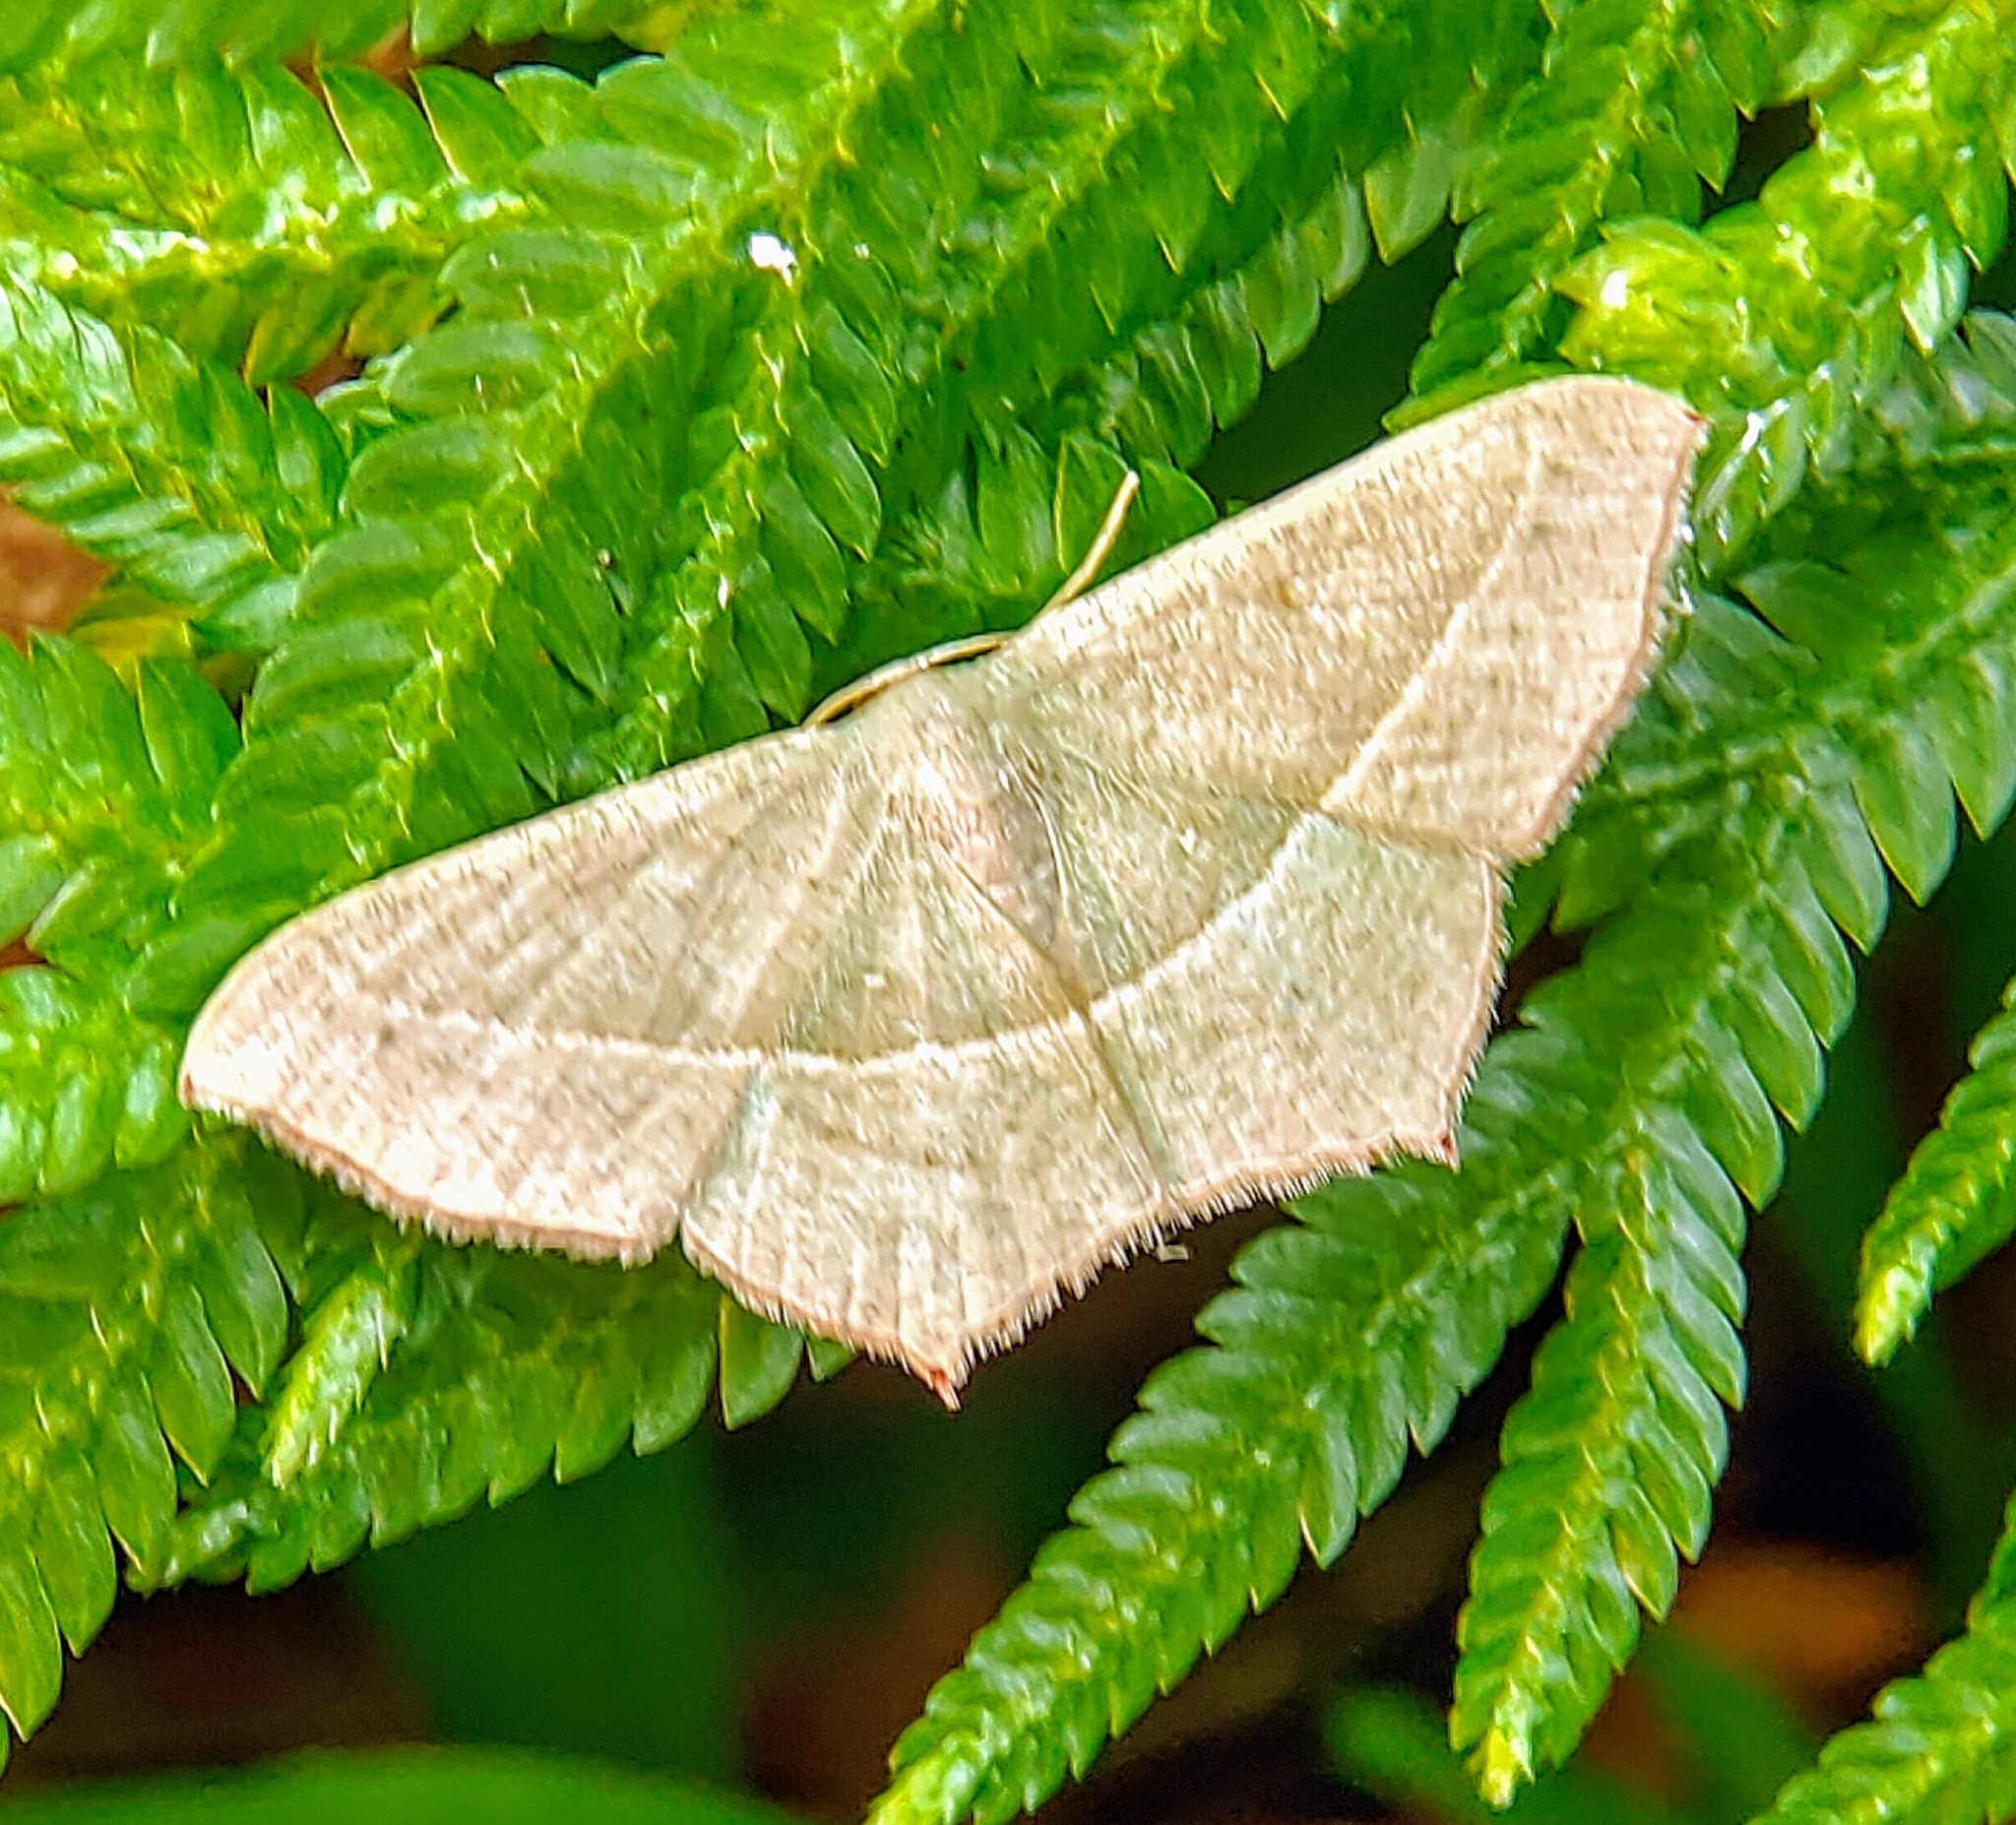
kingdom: Animalia
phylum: Arthropoda
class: Insecta
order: Lepidoptera
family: Geometridae
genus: Traminda
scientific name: Traminda mundissima
